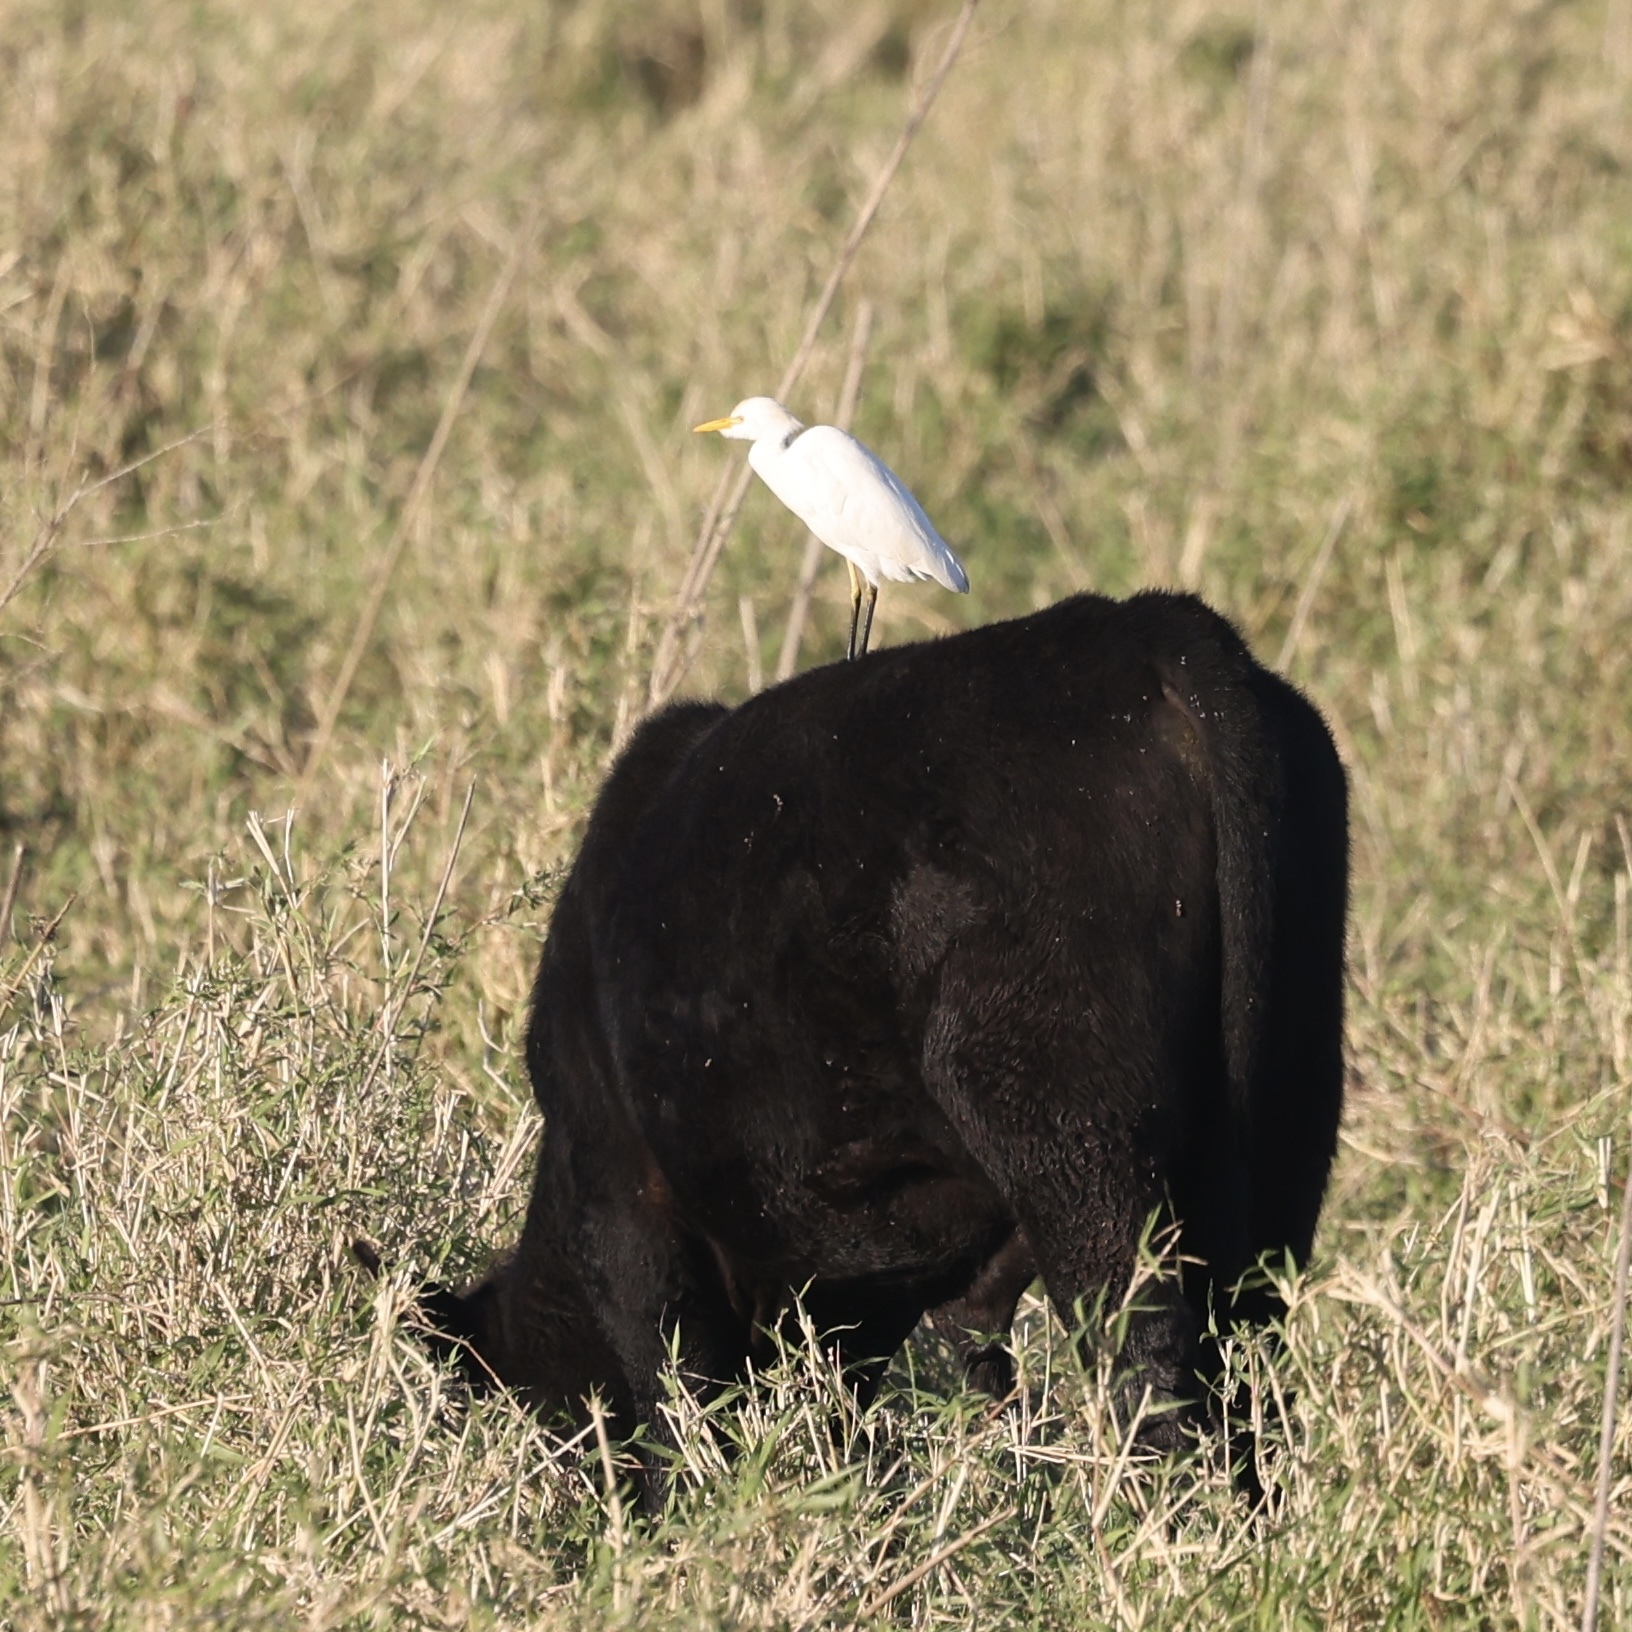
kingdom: Animalia
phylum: Chordata
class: Aves
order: Pelecaniformes
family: Ardeidae
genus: Bubulcus
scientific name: Bubulcus ibis
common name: Cattle egret
